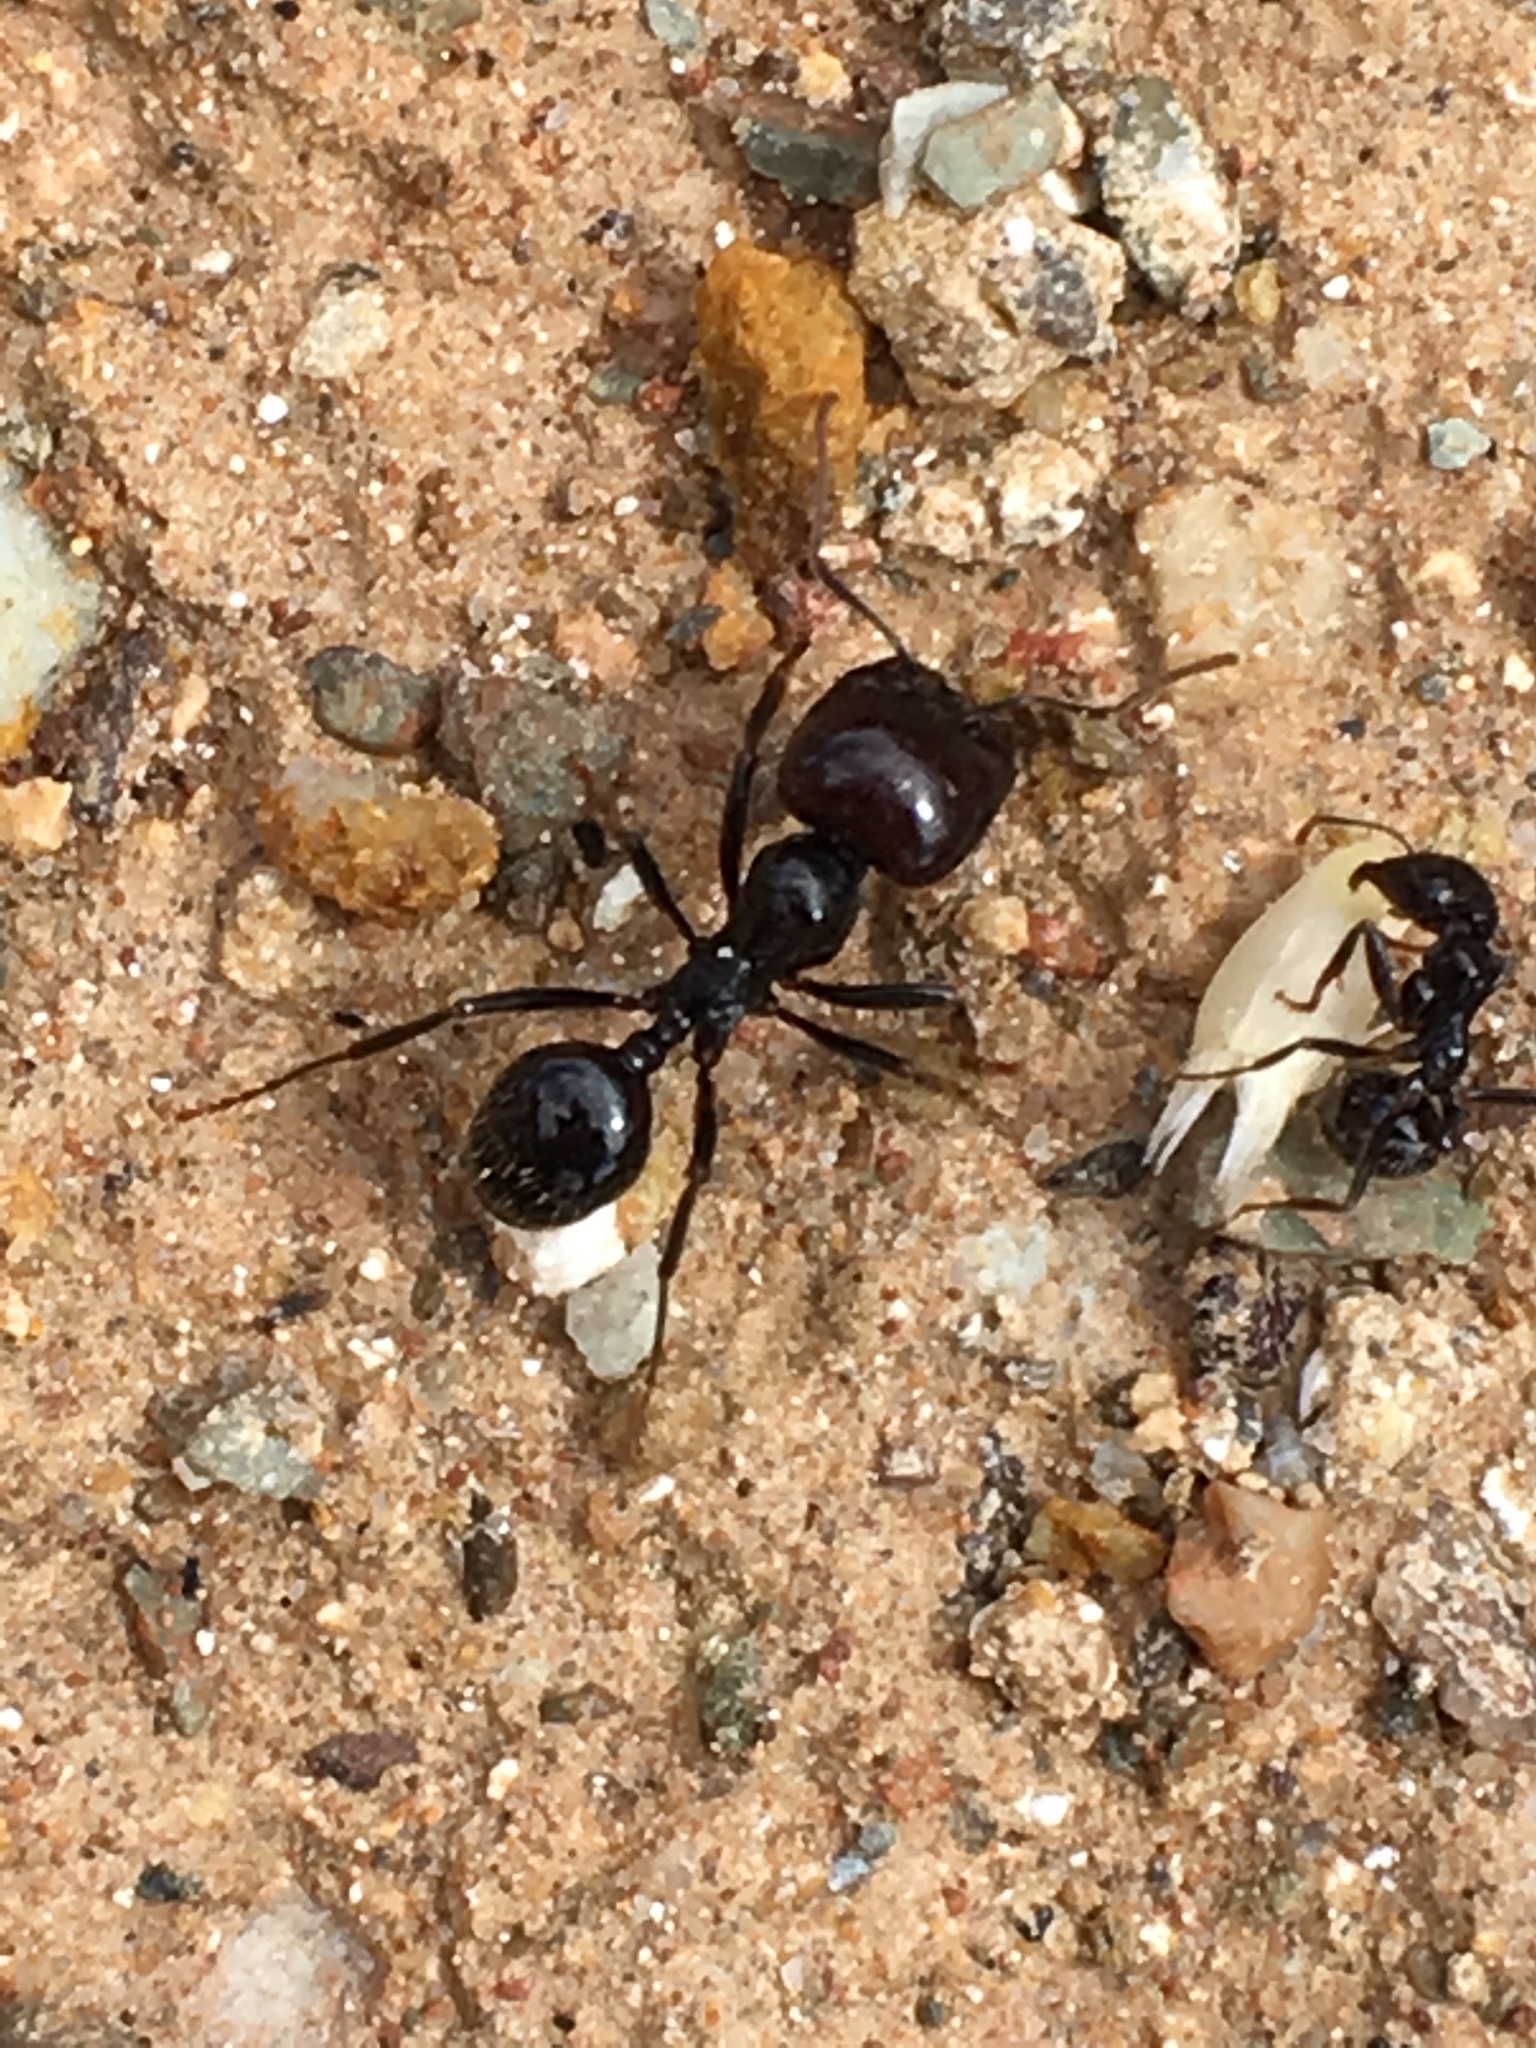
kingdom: Animalia
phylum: Arthropoda
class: Insecta
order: Hymenoptera
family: Formicidae
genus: Messor
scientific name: Messor barbarus
